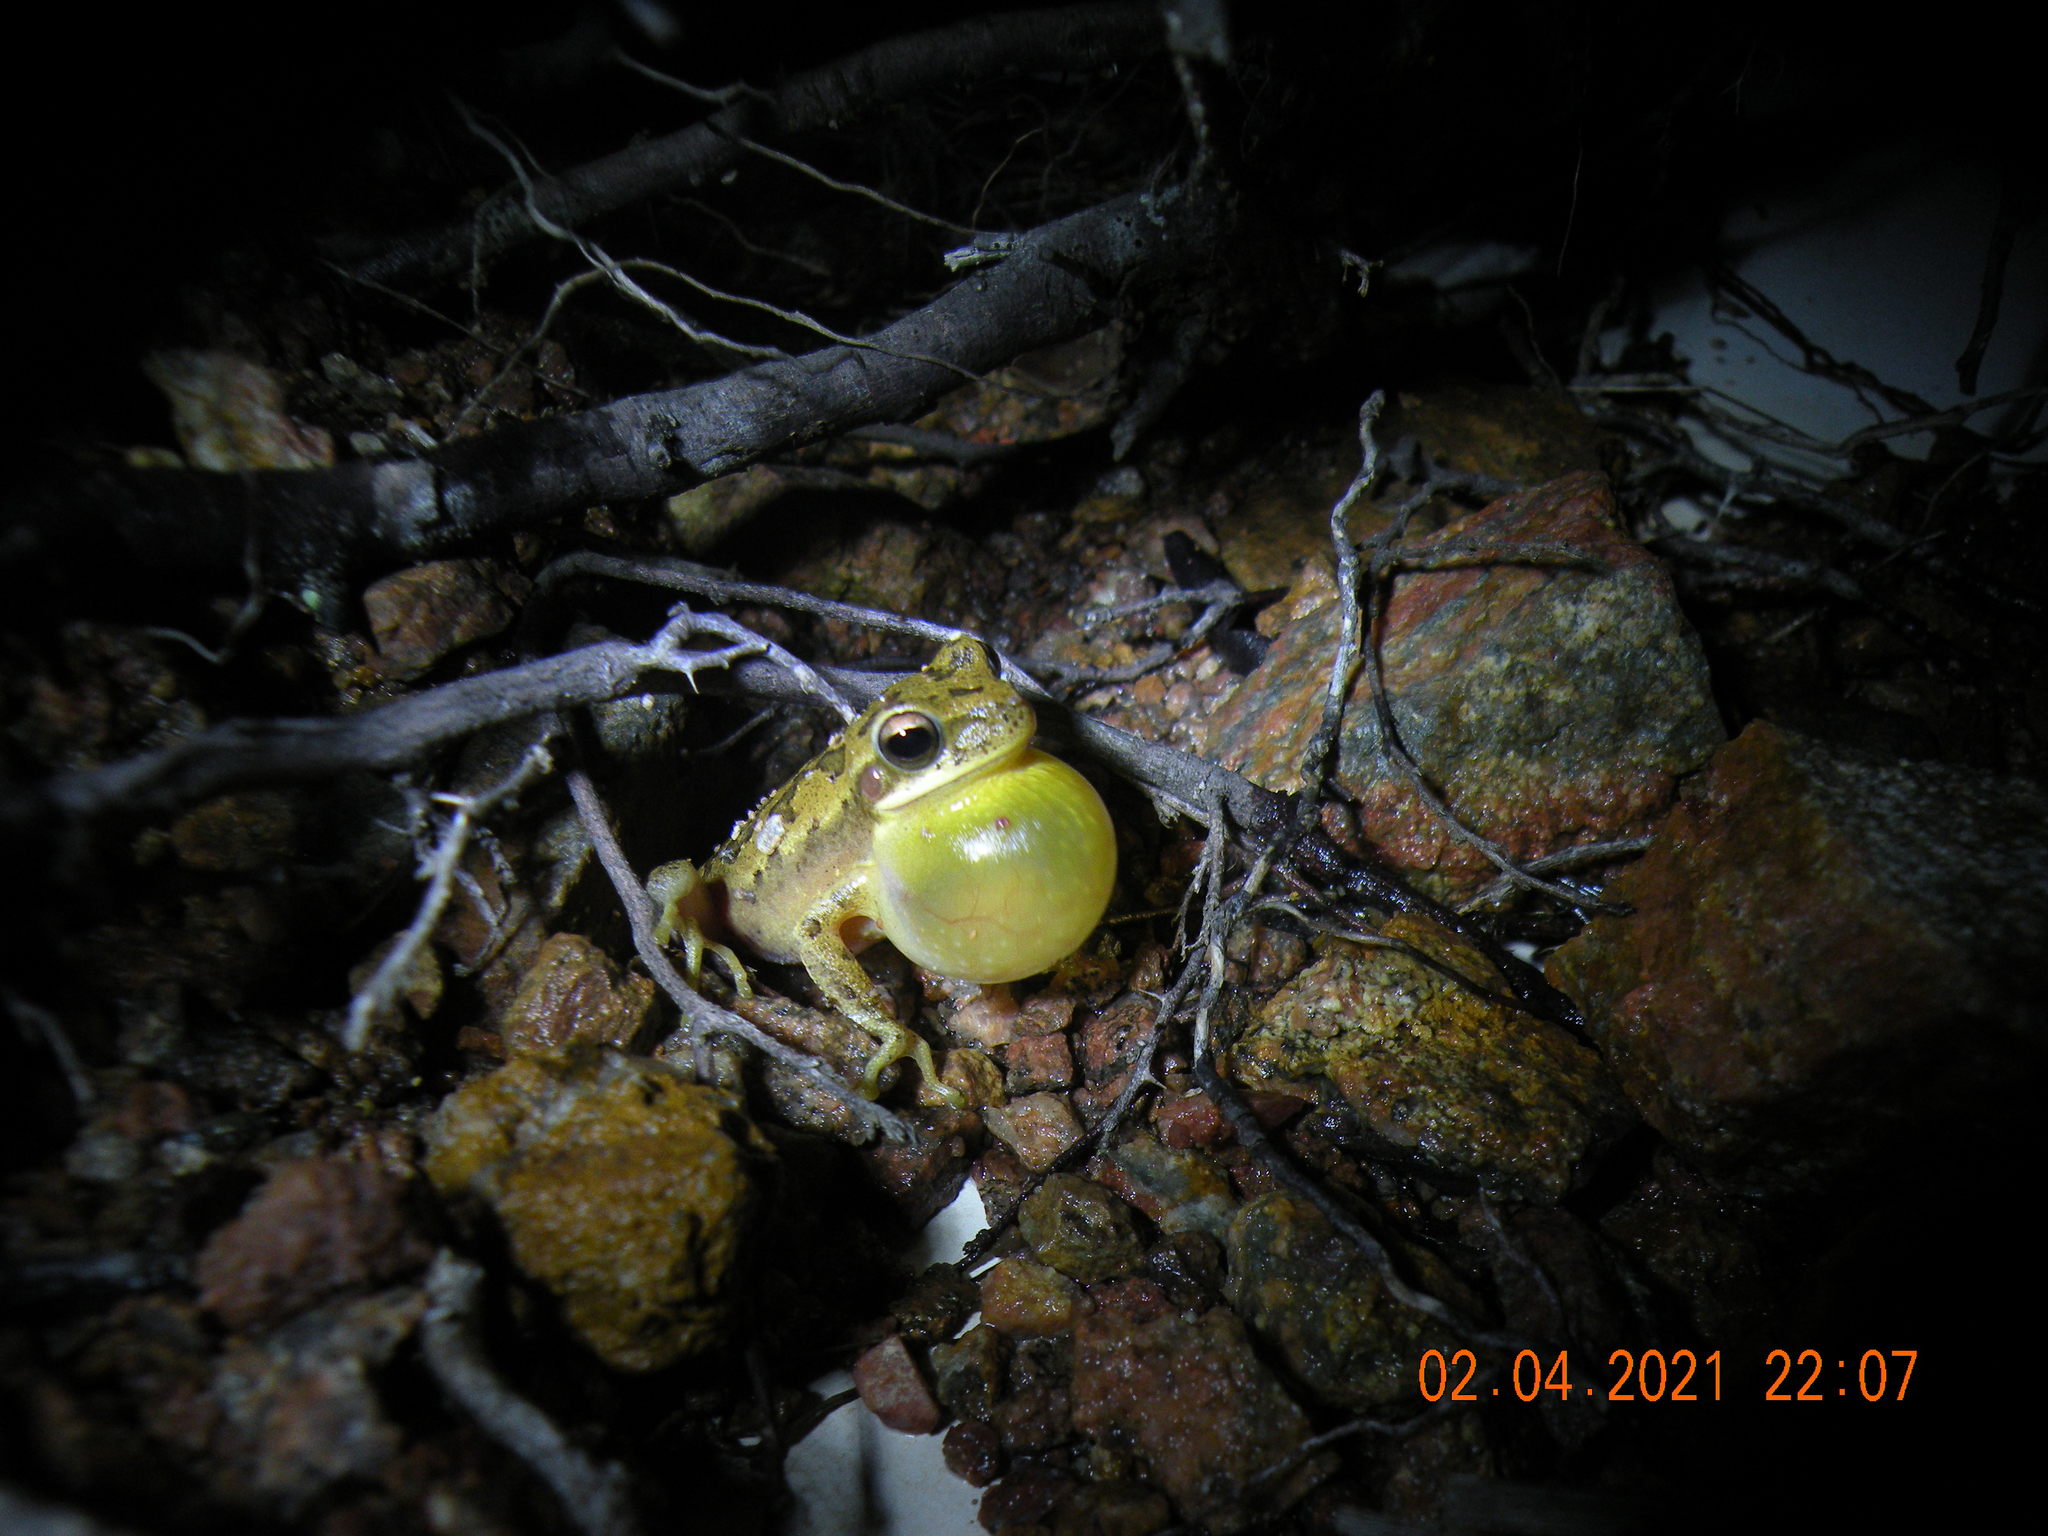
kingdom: Animalia
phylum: Chordata
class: Amphibia
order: Anura
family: Hylidae
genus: Boana
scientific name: Boana pulchella
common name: Montevideo treefrog
